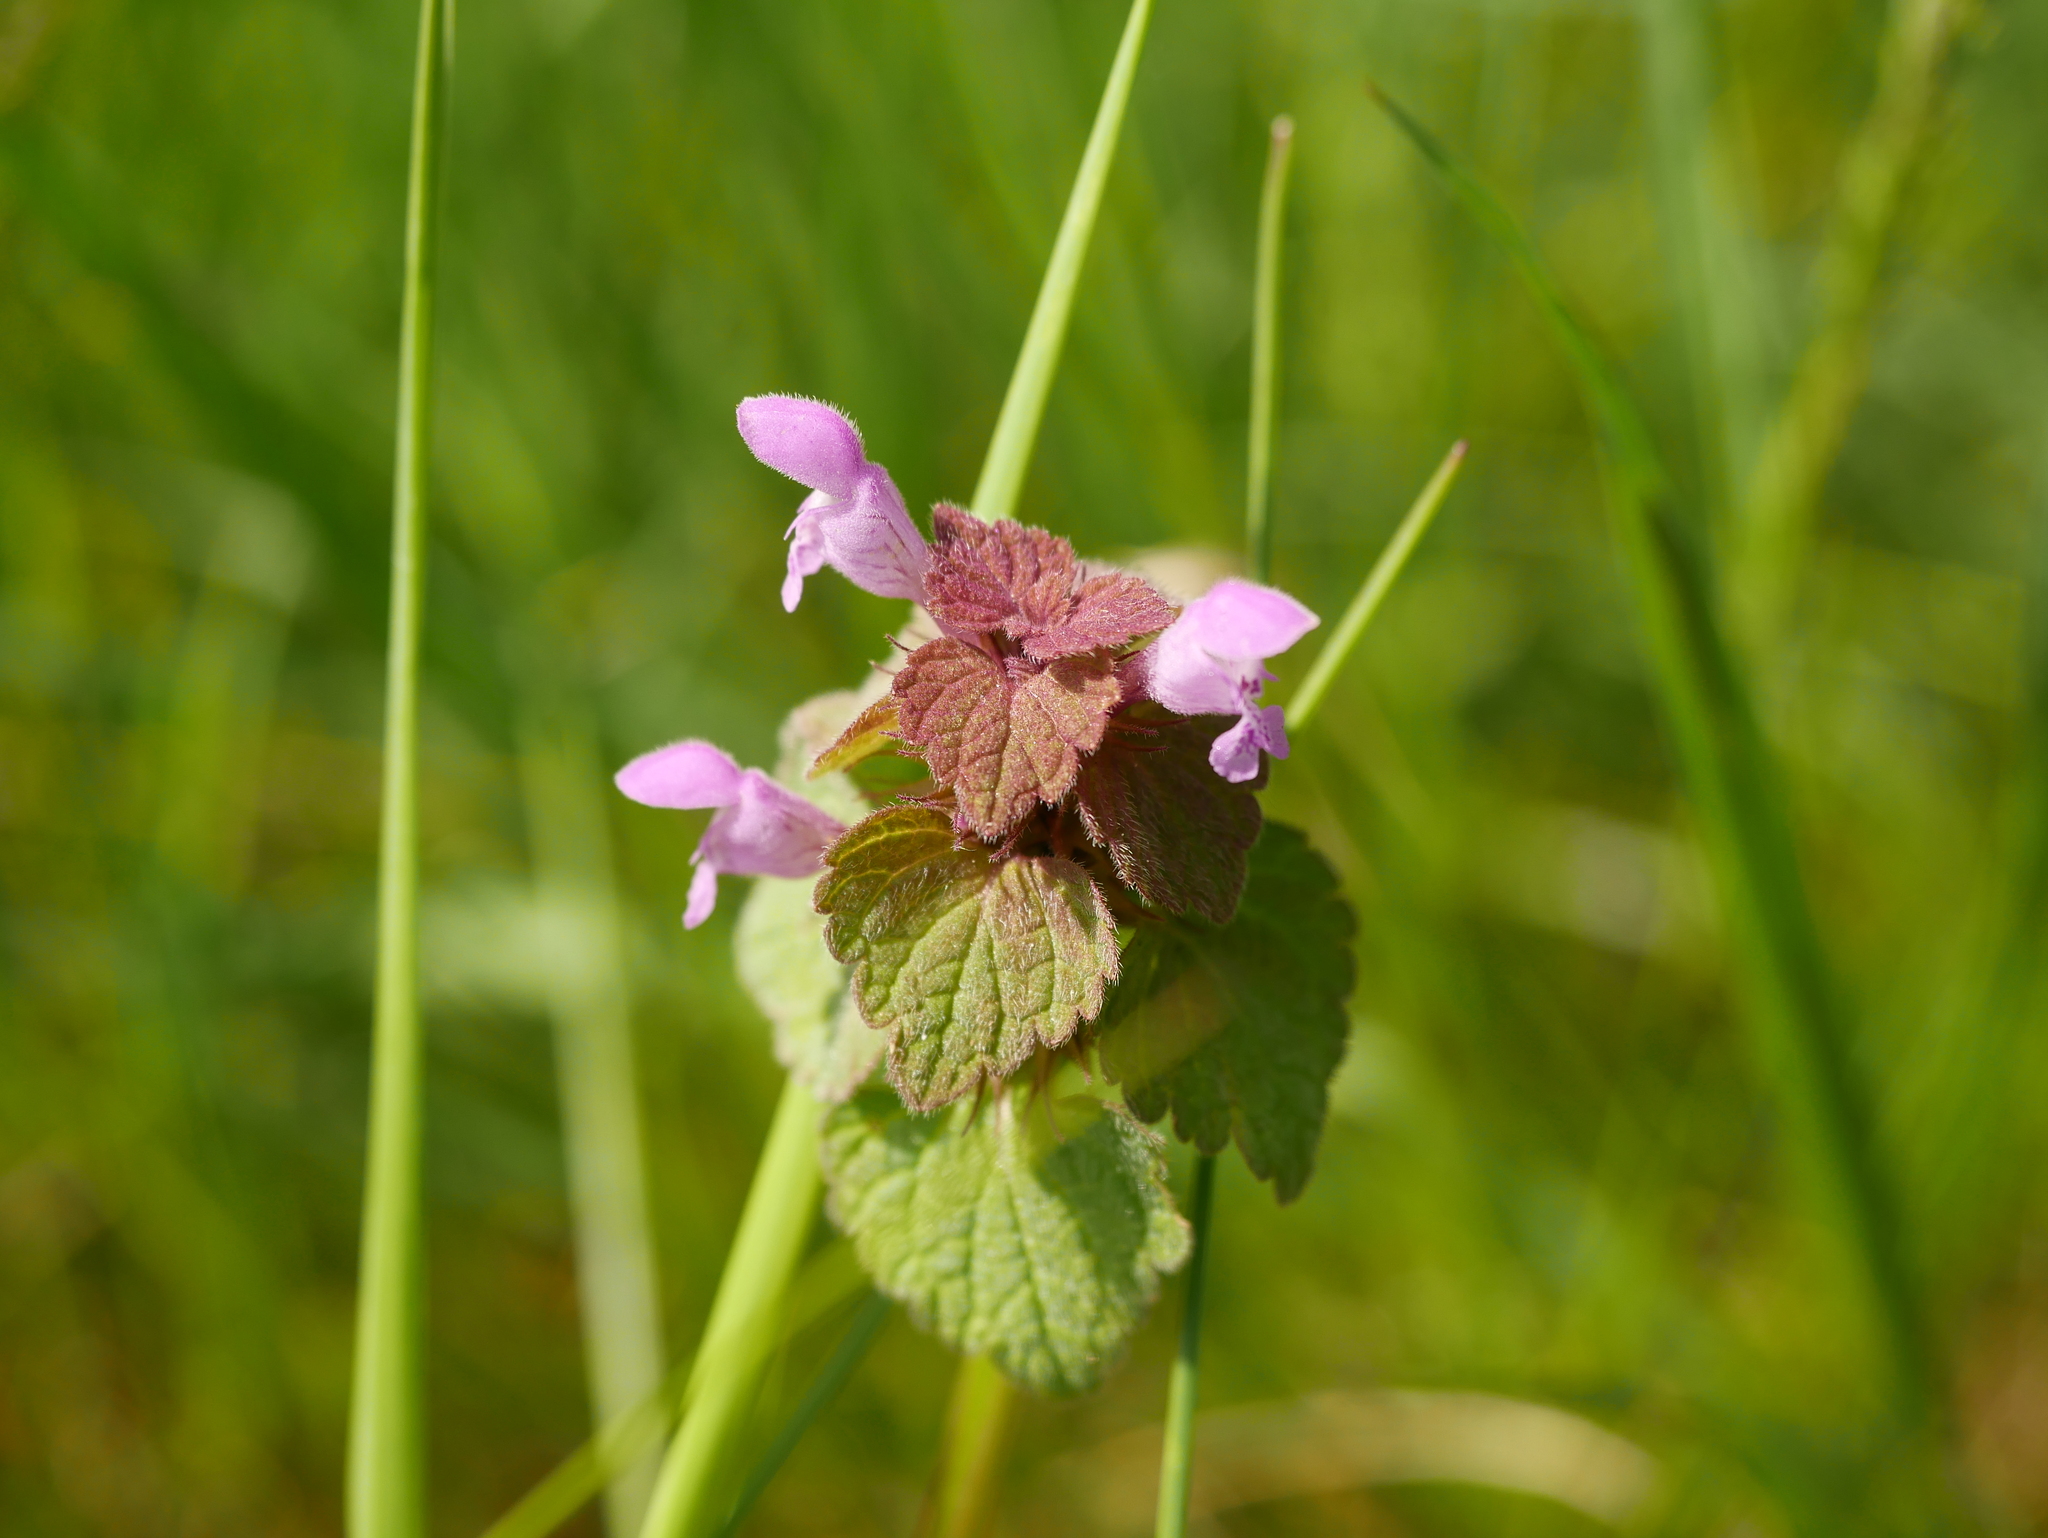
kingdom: Plantae
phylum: Tracheophyta
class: Magnoliopsida
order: Lamiales
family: Lamiaceae
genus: Lamium
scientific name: Lamium purpureum
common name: Red dead-nettle
